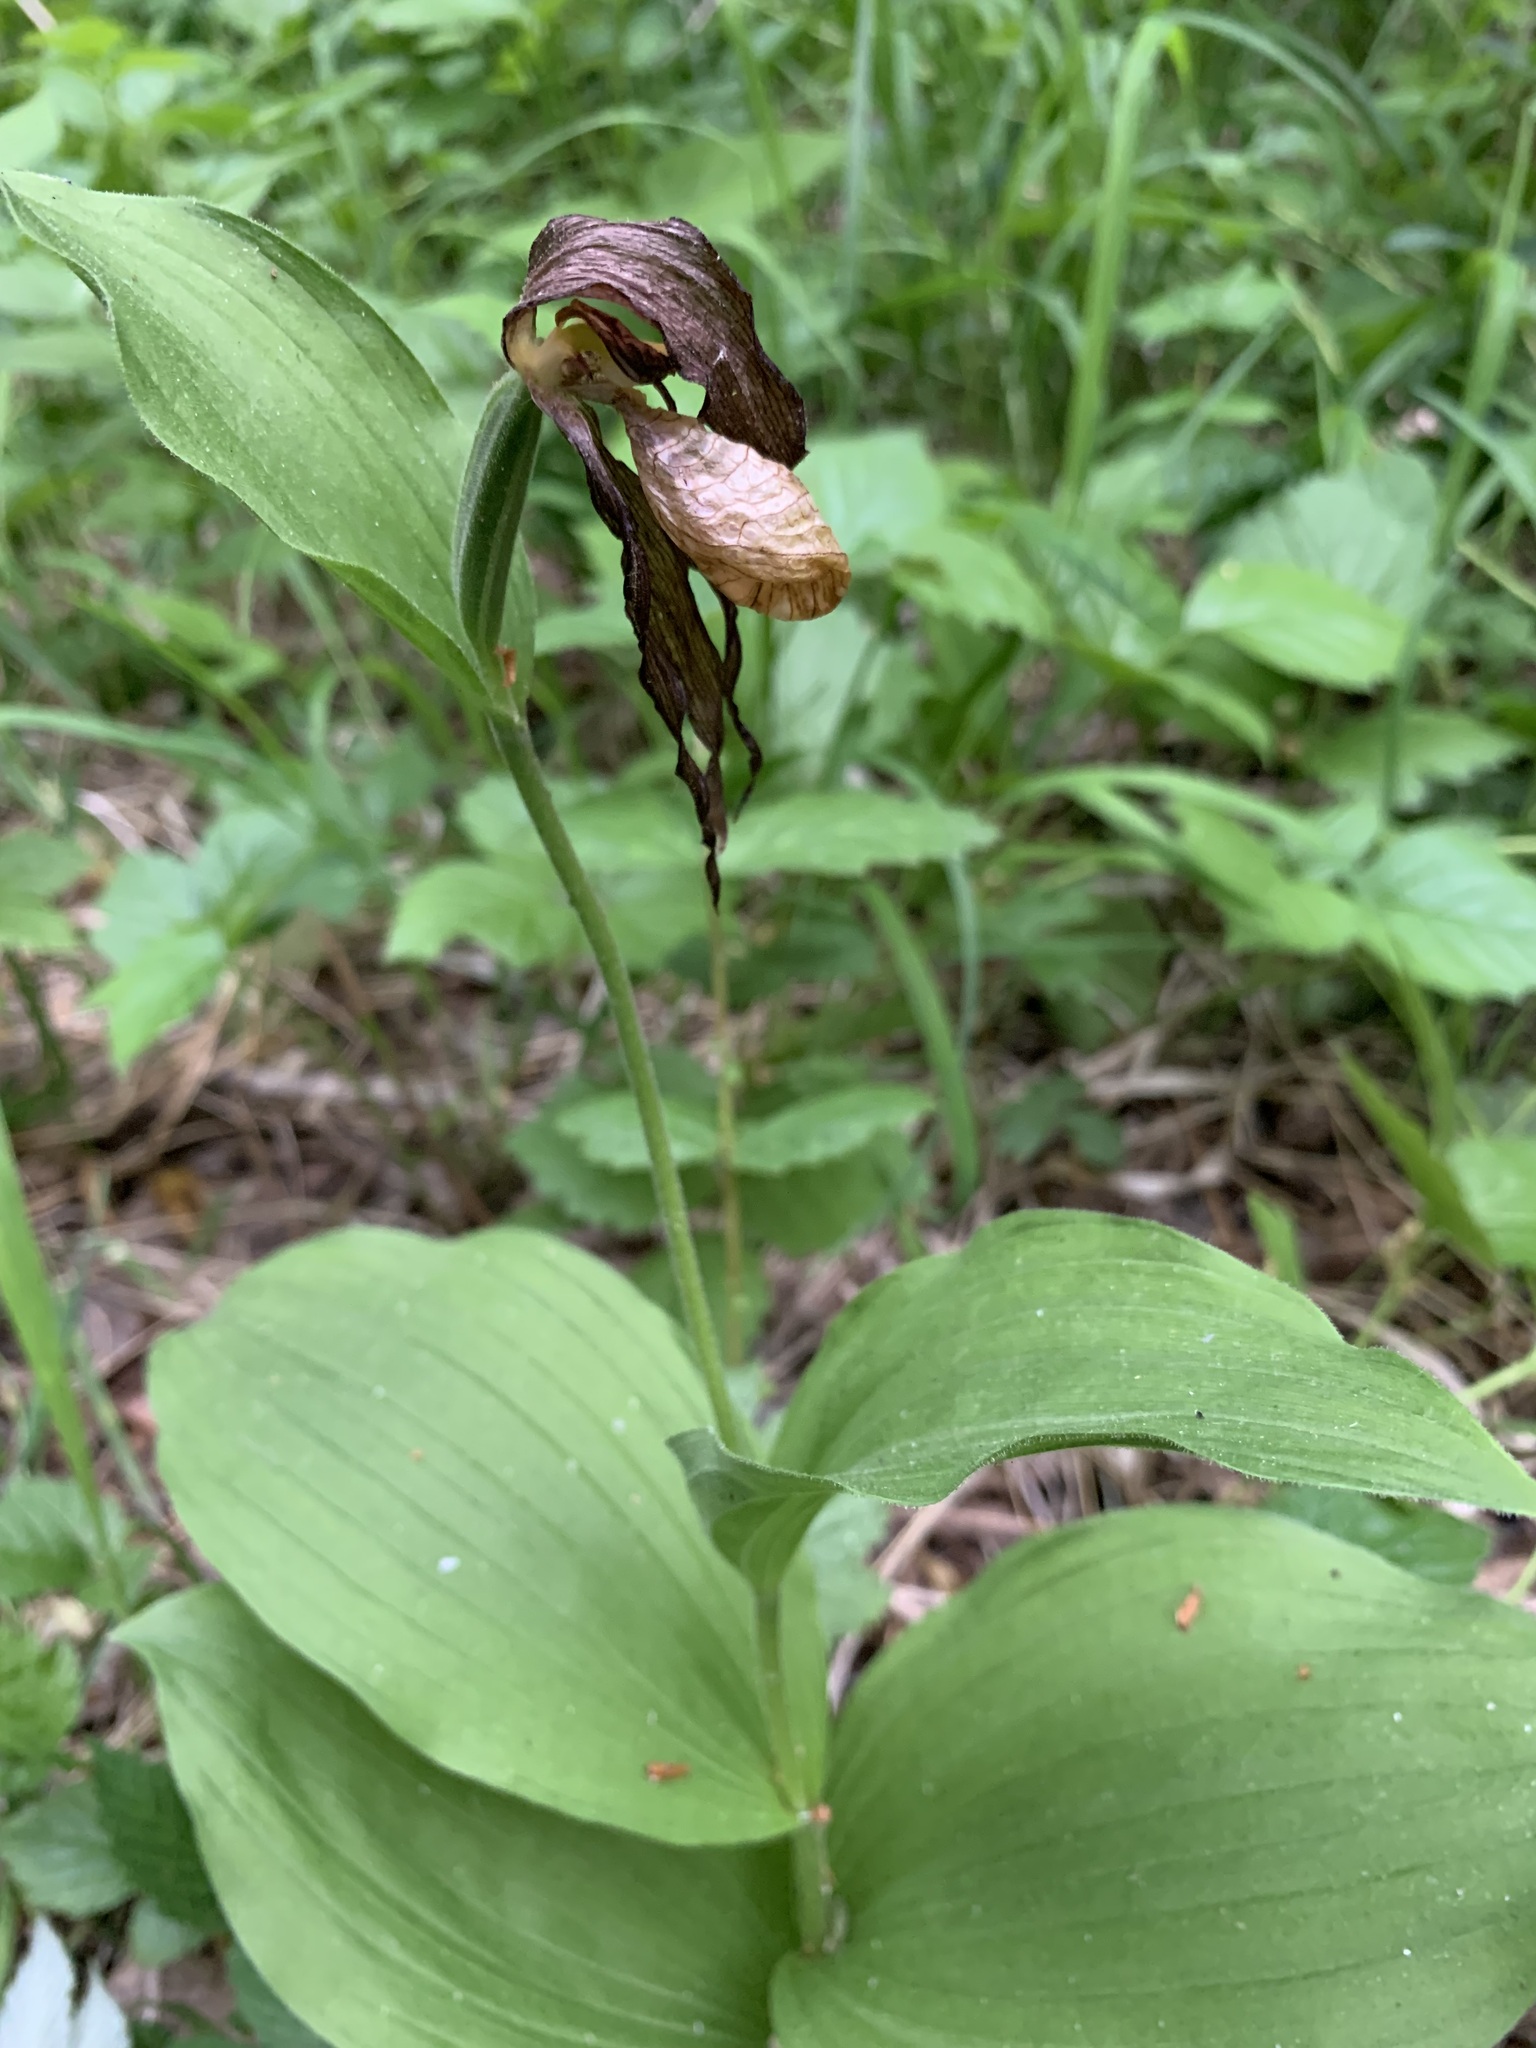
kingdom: Plantae
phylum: Tracheophyta
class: Liliopsida
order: Asparagales
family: Orchidaceae
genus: Cypripedium
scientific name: Cypripedium calceolus
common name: Lady's-slipper
